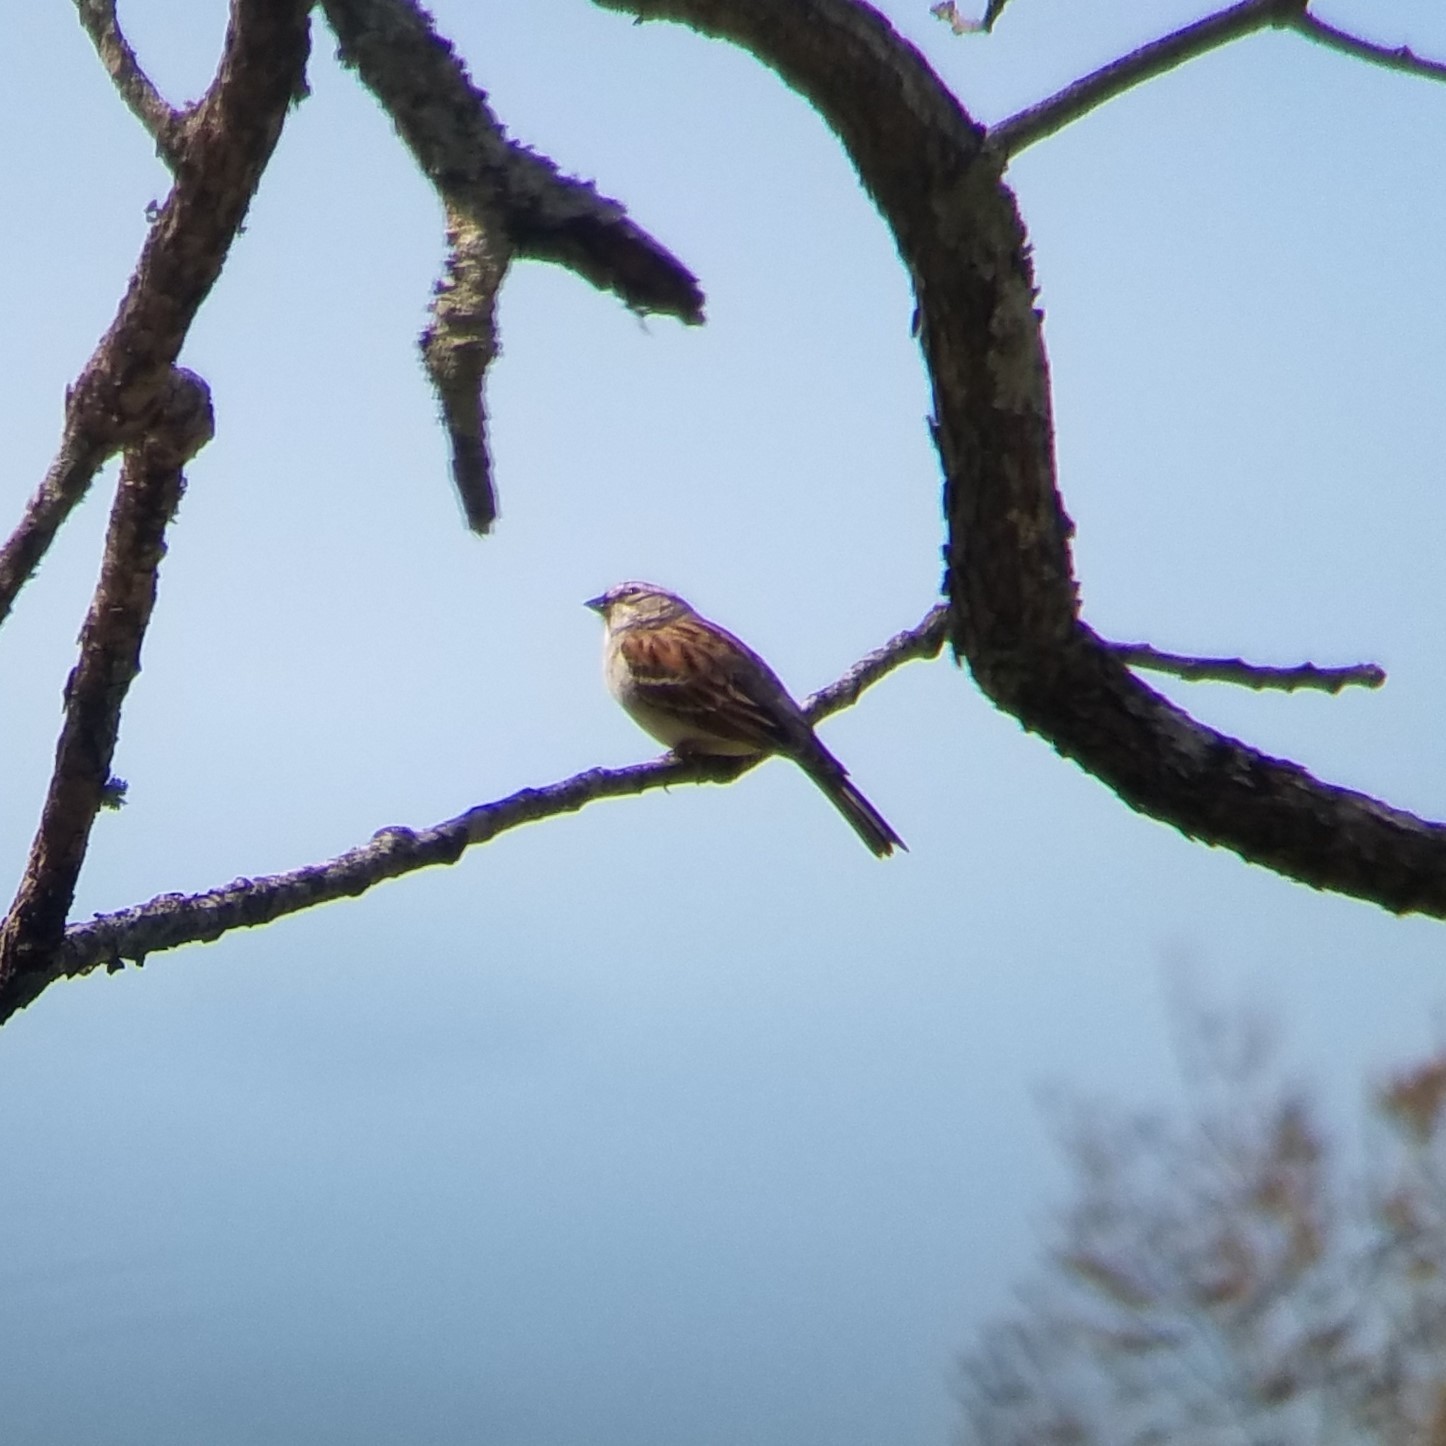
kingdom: Animalia
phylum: Chordata
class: Aves
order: Passeriformes
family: Passerellidae
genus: Spizella
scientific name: Spizella passerina
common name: Chipping sparrow
